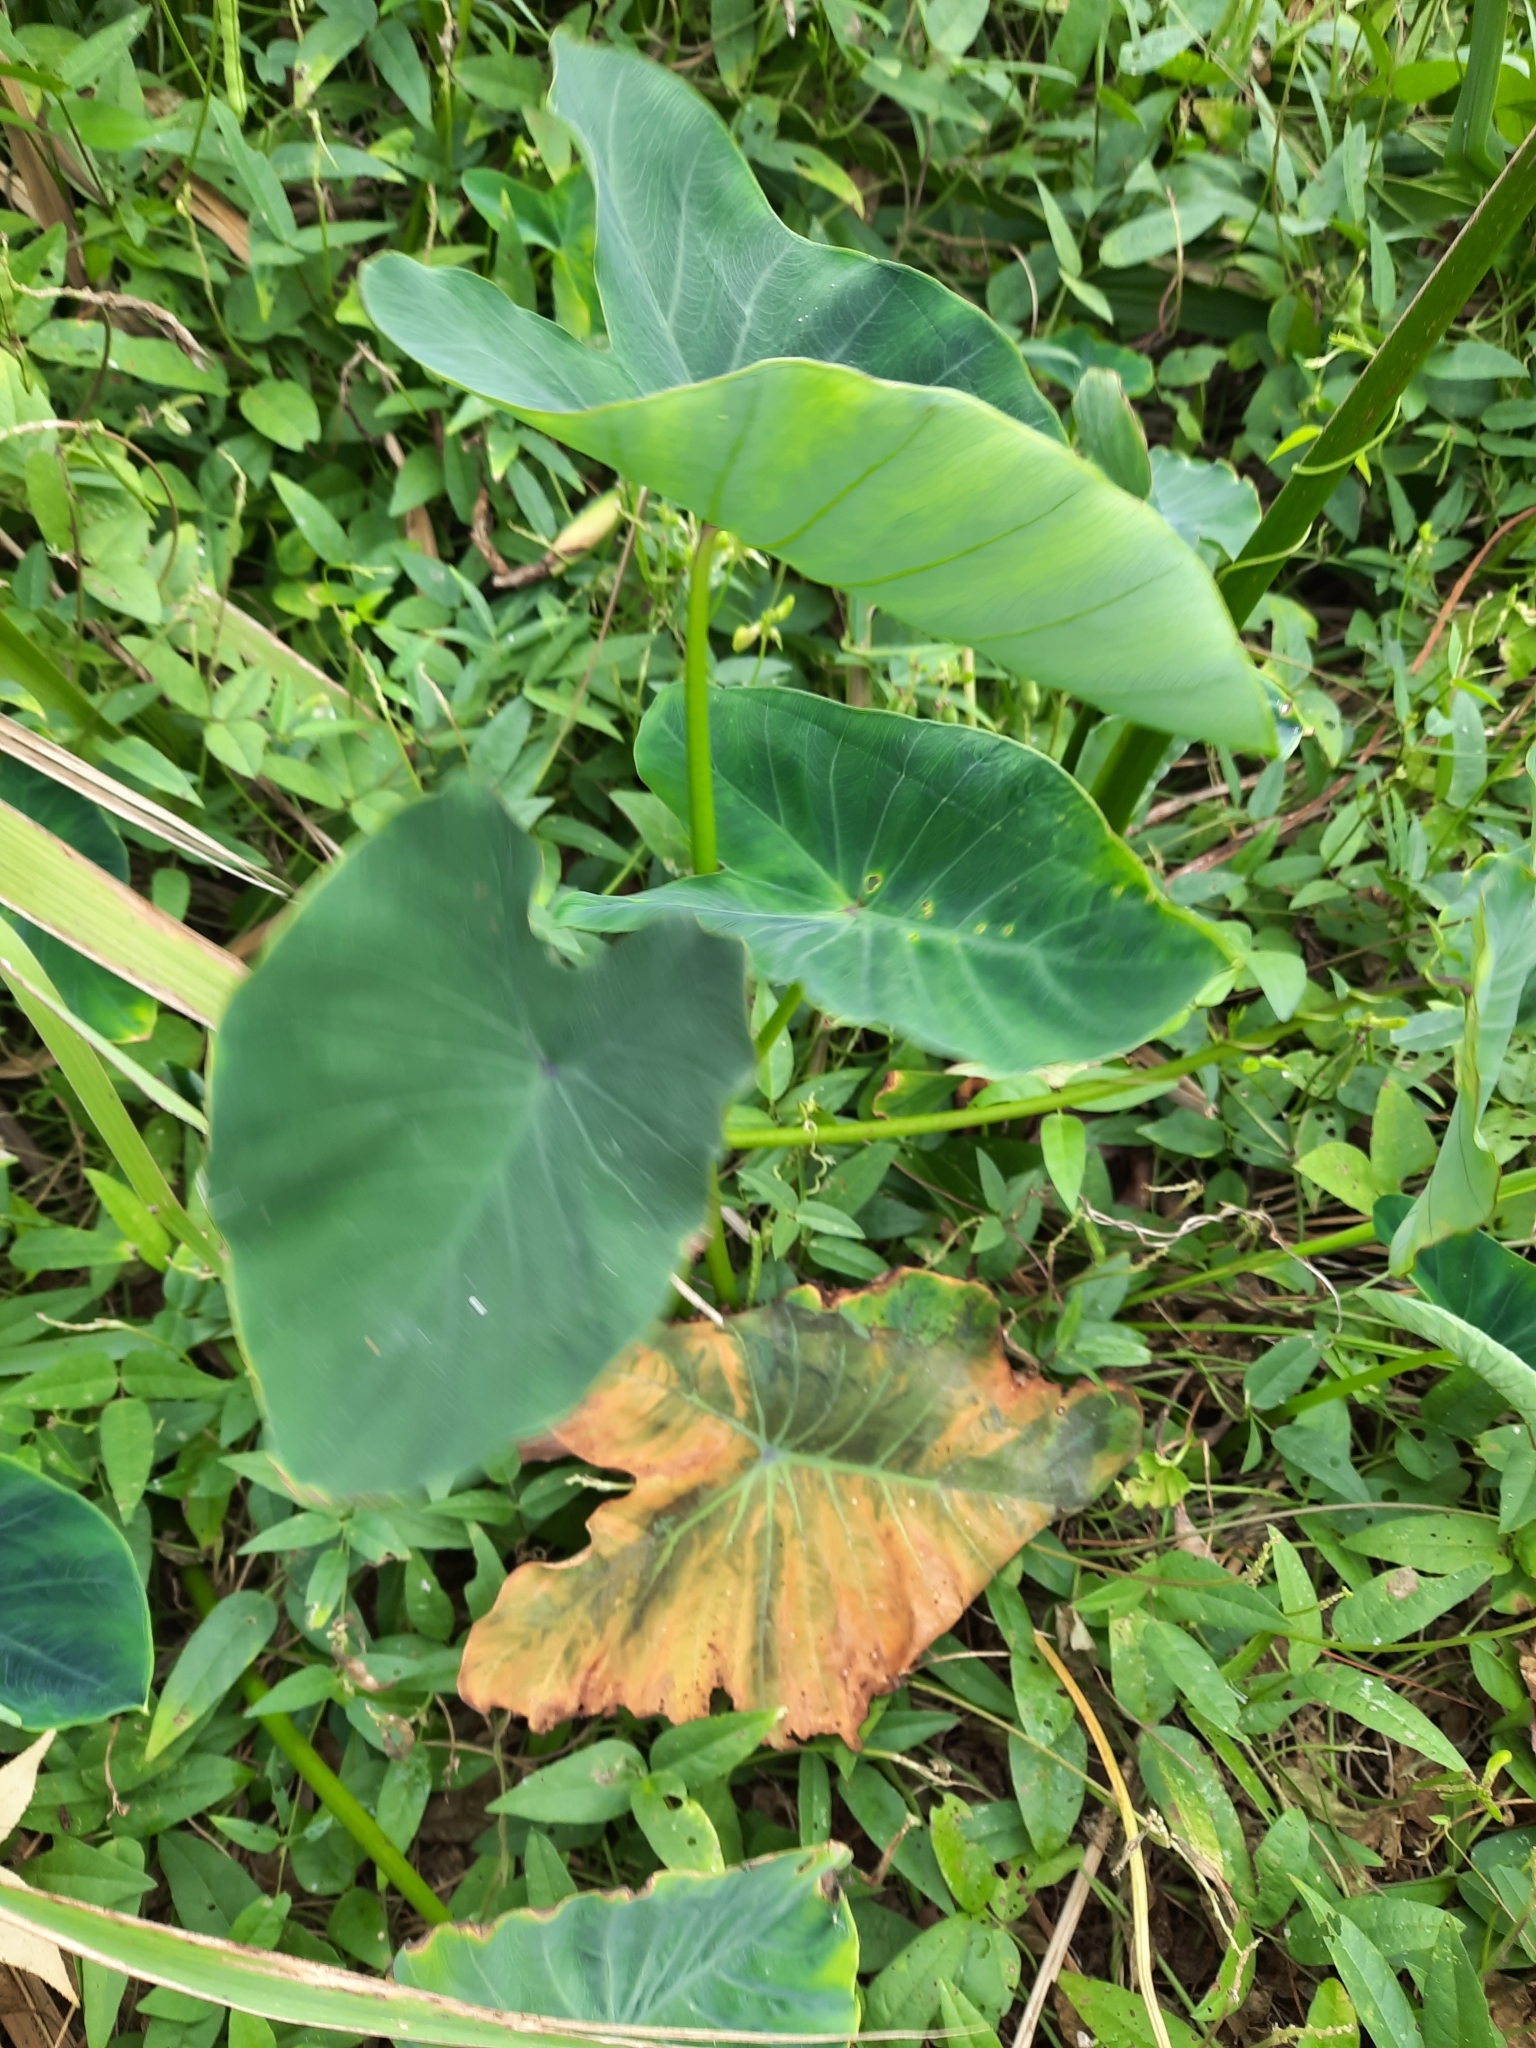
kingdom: Plantae
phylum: Tracheophyta
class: Liliopsida
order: Alismatales
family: Araceae
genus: Colocasia
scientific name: Colocasia esculenta
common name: Taro
